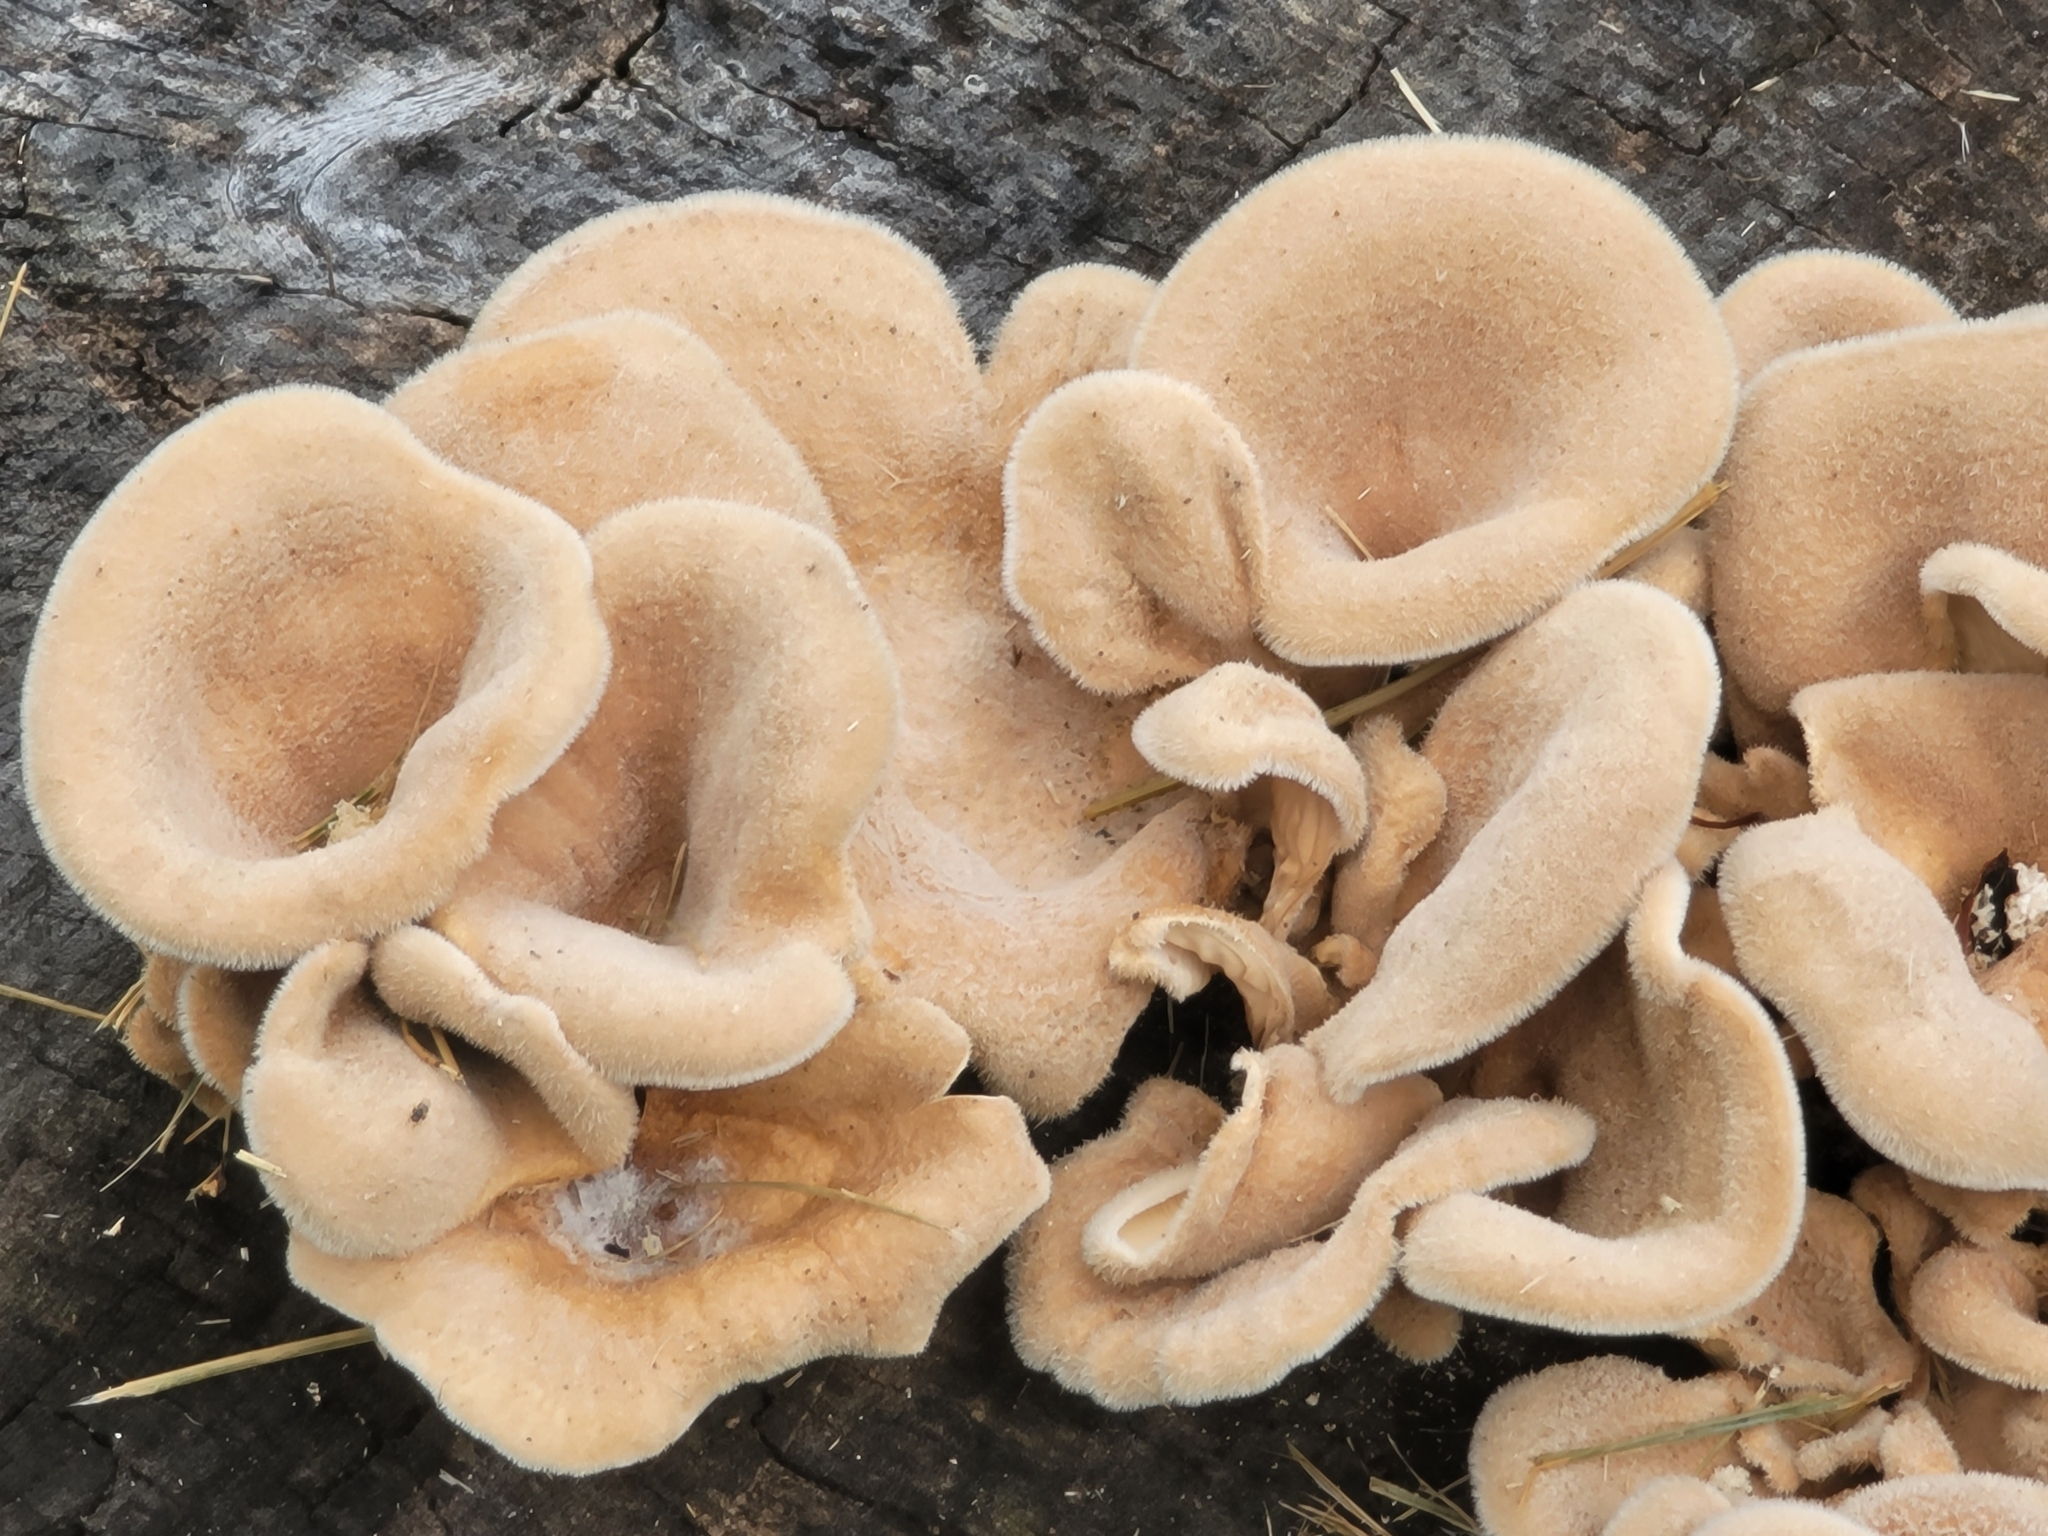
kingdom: Fungi
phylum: Basidiomycota
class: Agaricomycetes
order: Polyporales
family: Panaceae
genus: Panus
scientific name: Panus neostrigosus
